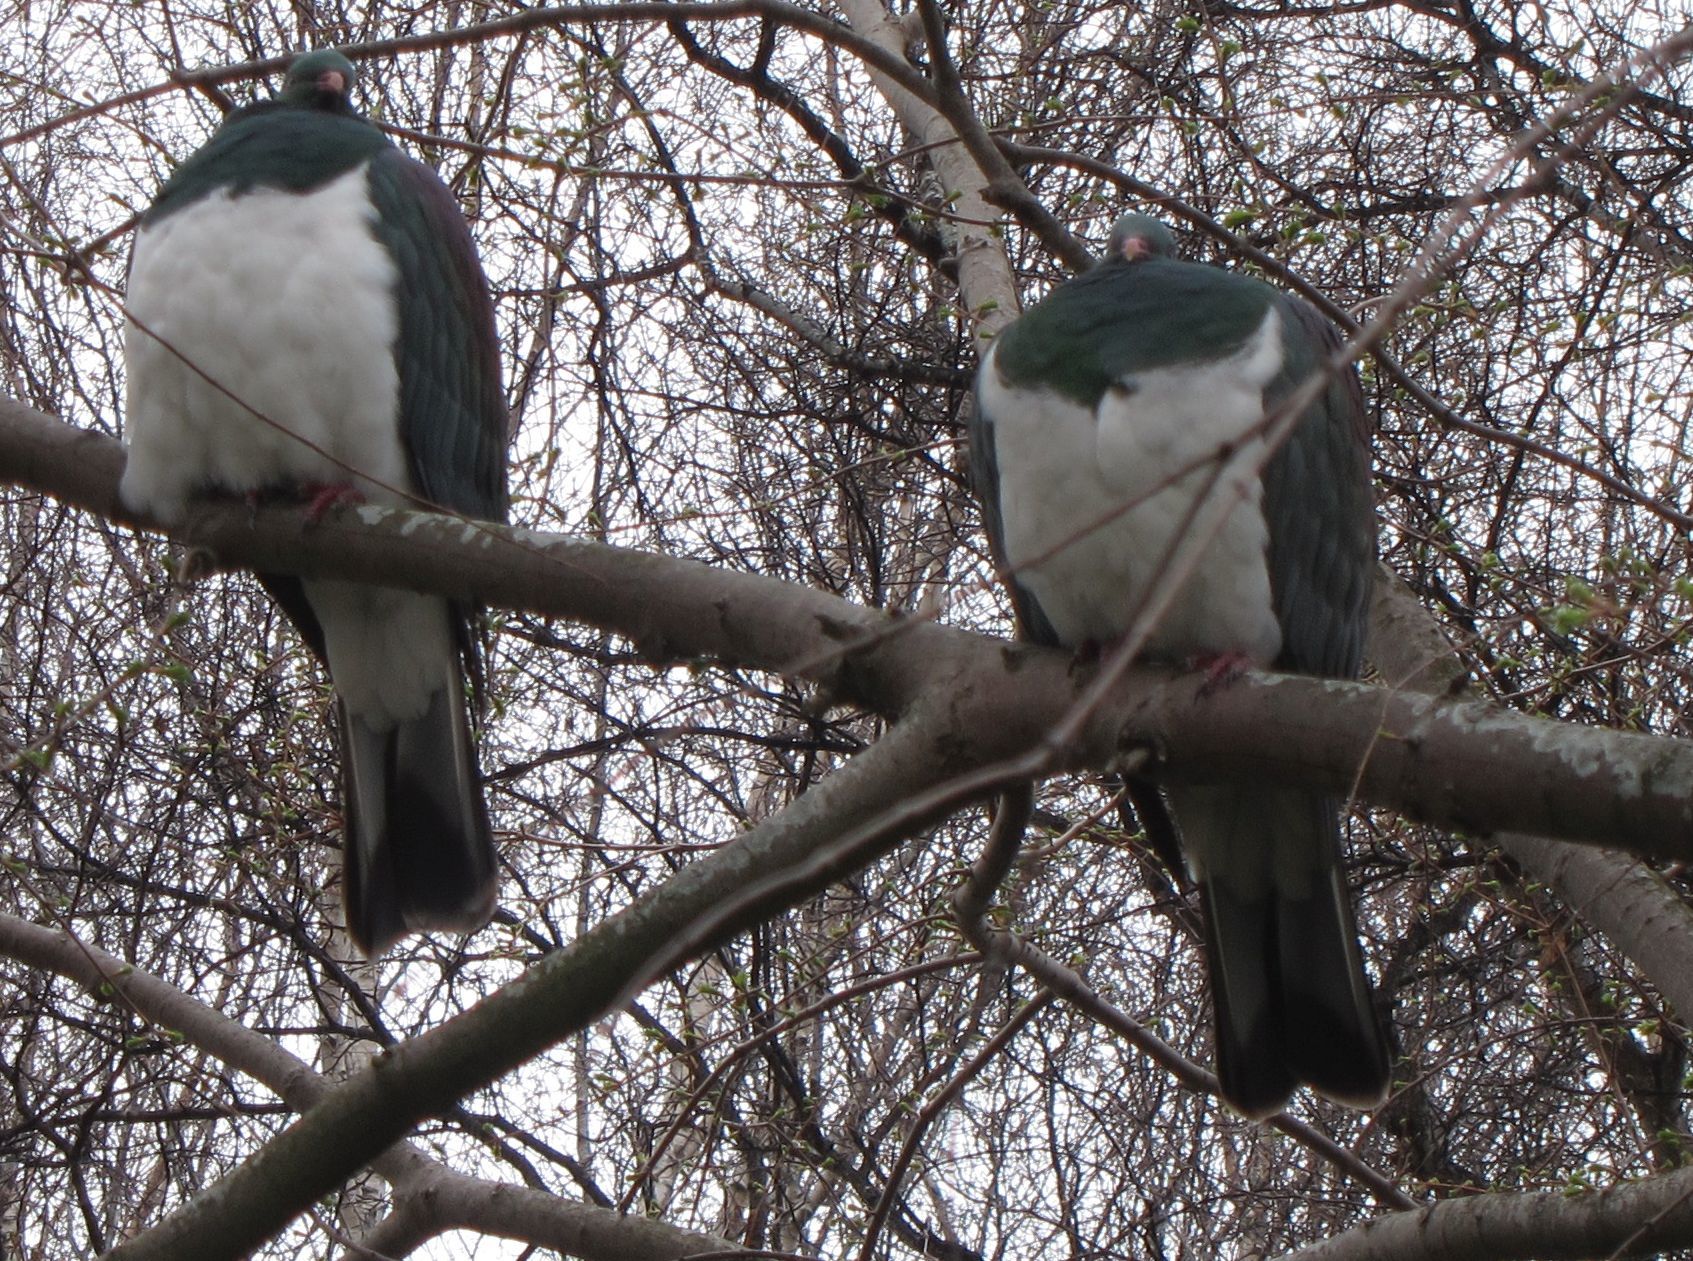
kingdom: Animalia
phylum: Chordata
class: Aves
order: Columbiformes
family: Columbidae
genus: Hemiphaga
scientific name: Hemiphaga novaeseelandiae
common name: New zealand pigeon
